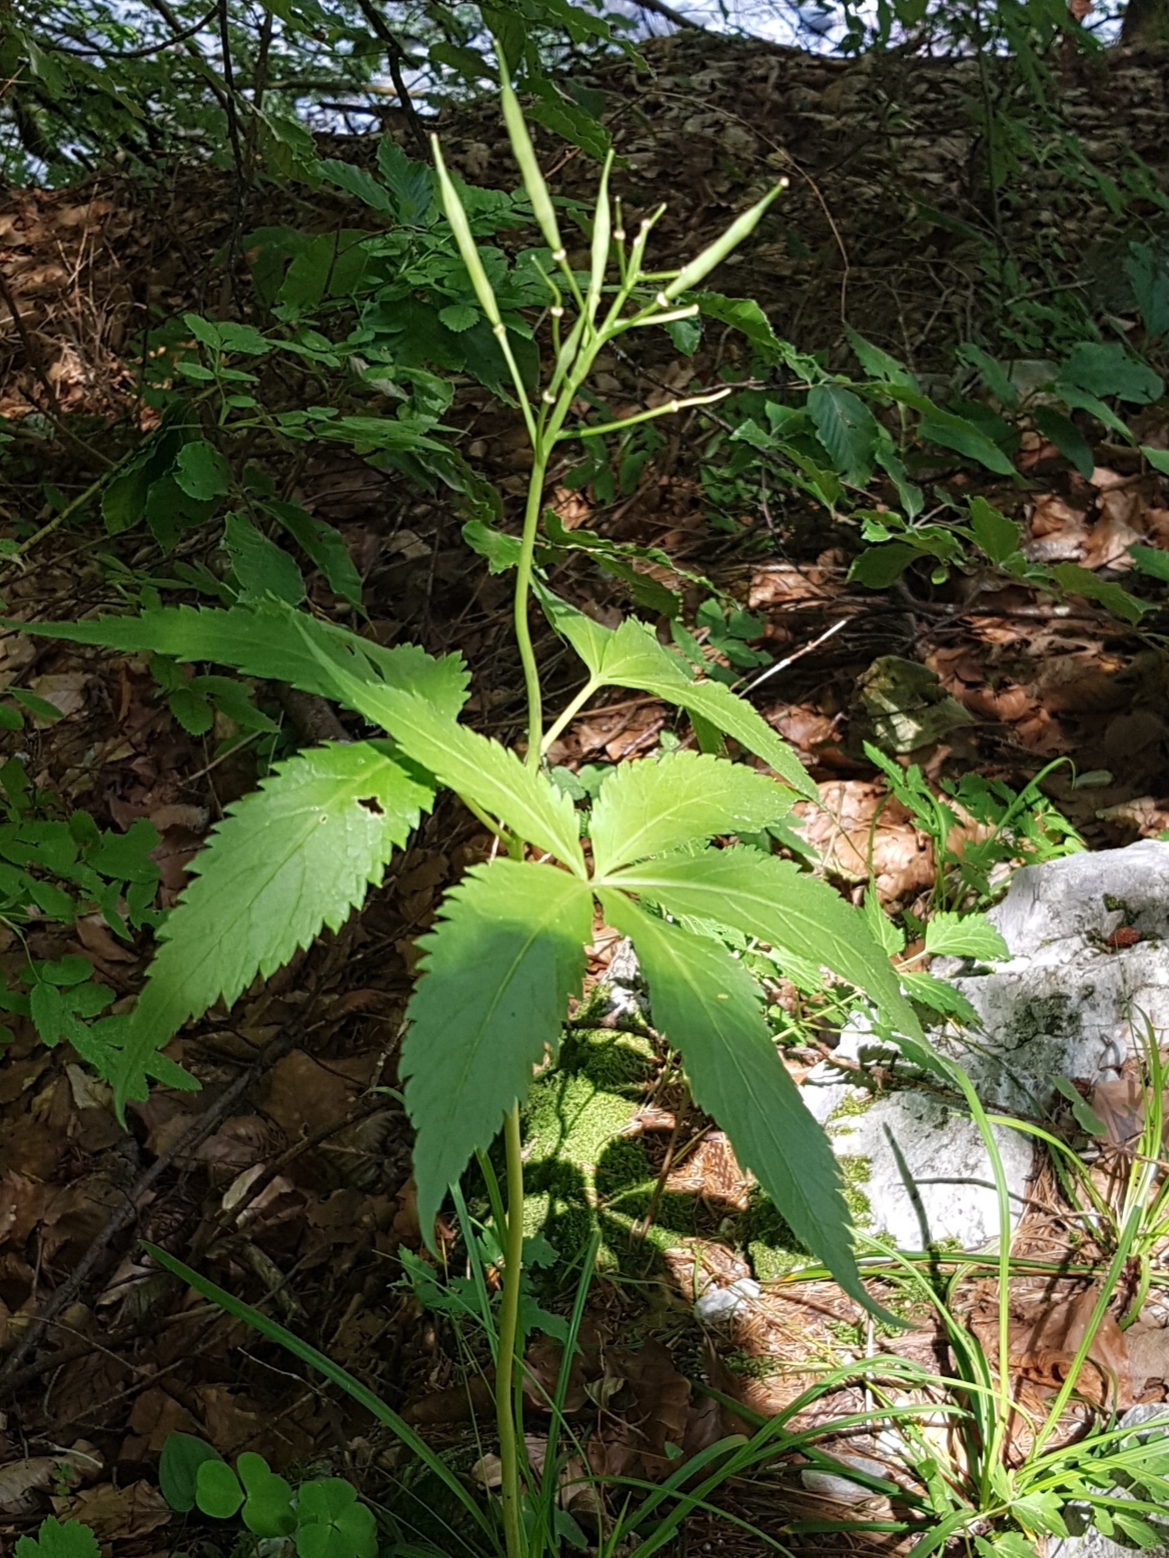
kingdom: Plantae
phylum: Tracheophyta
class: Magnoliopsida
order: Brassicales
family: Brassicaceae
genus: Cardamine
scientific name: Cardamine pentaphyllos
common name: Five-leaflet bitter-cress
